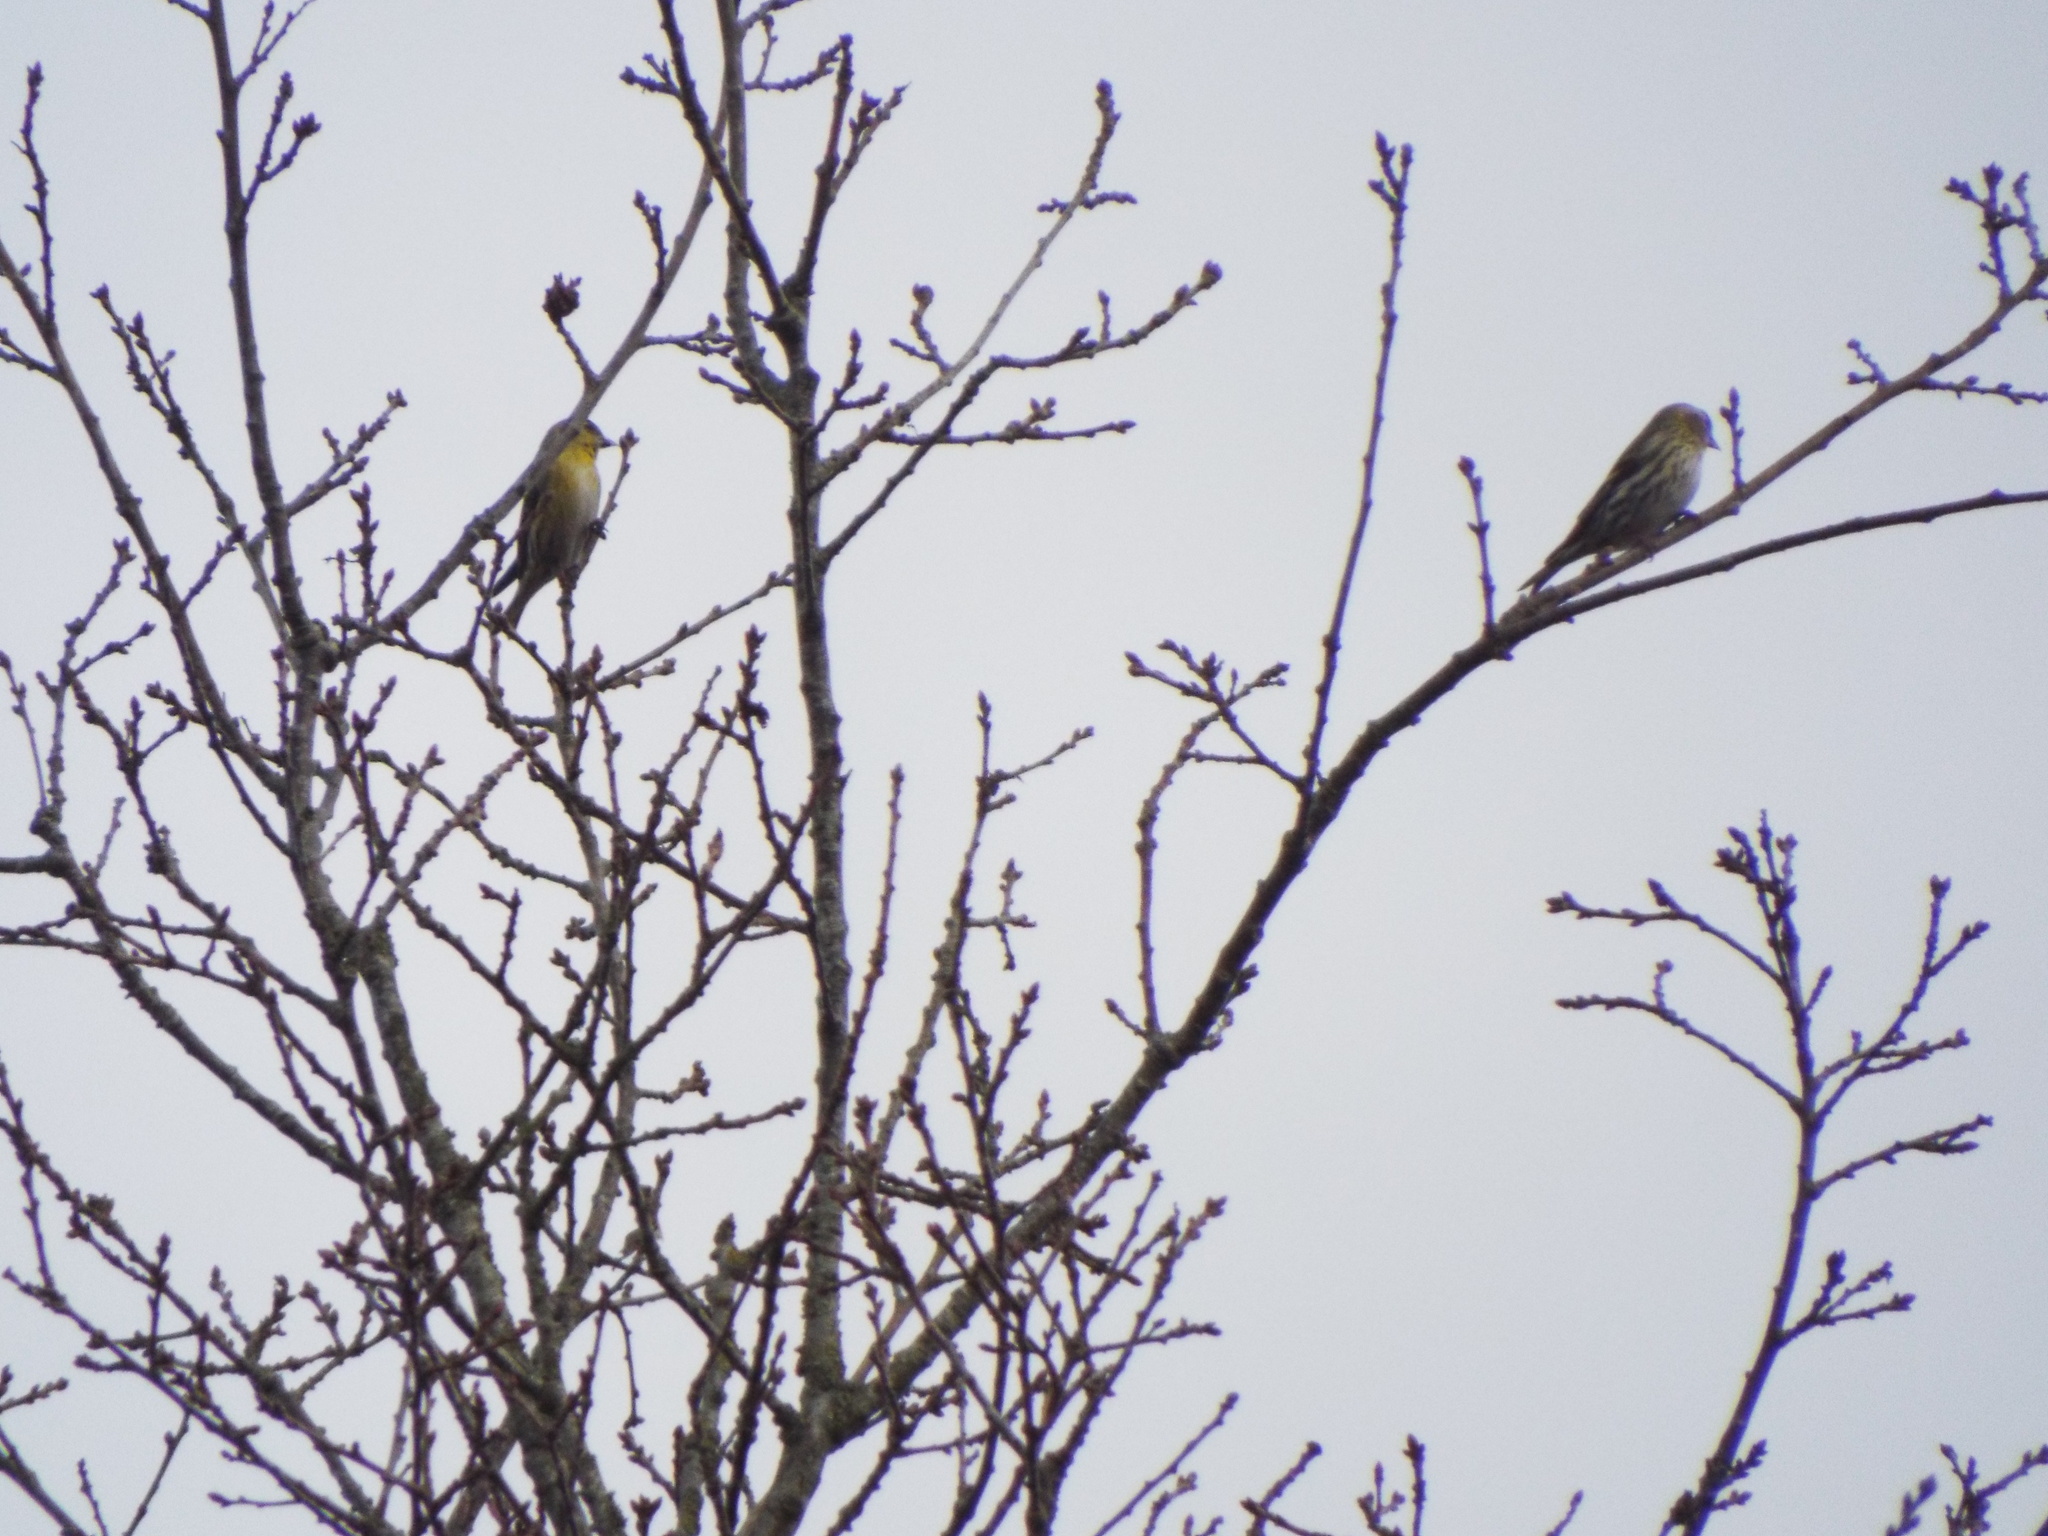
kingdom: Animalia
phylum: Chordata
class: Aves
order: Passeriformes
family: Fringillidae
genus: Spinus
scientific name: Spinus spinus
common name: Eurasian siskin
